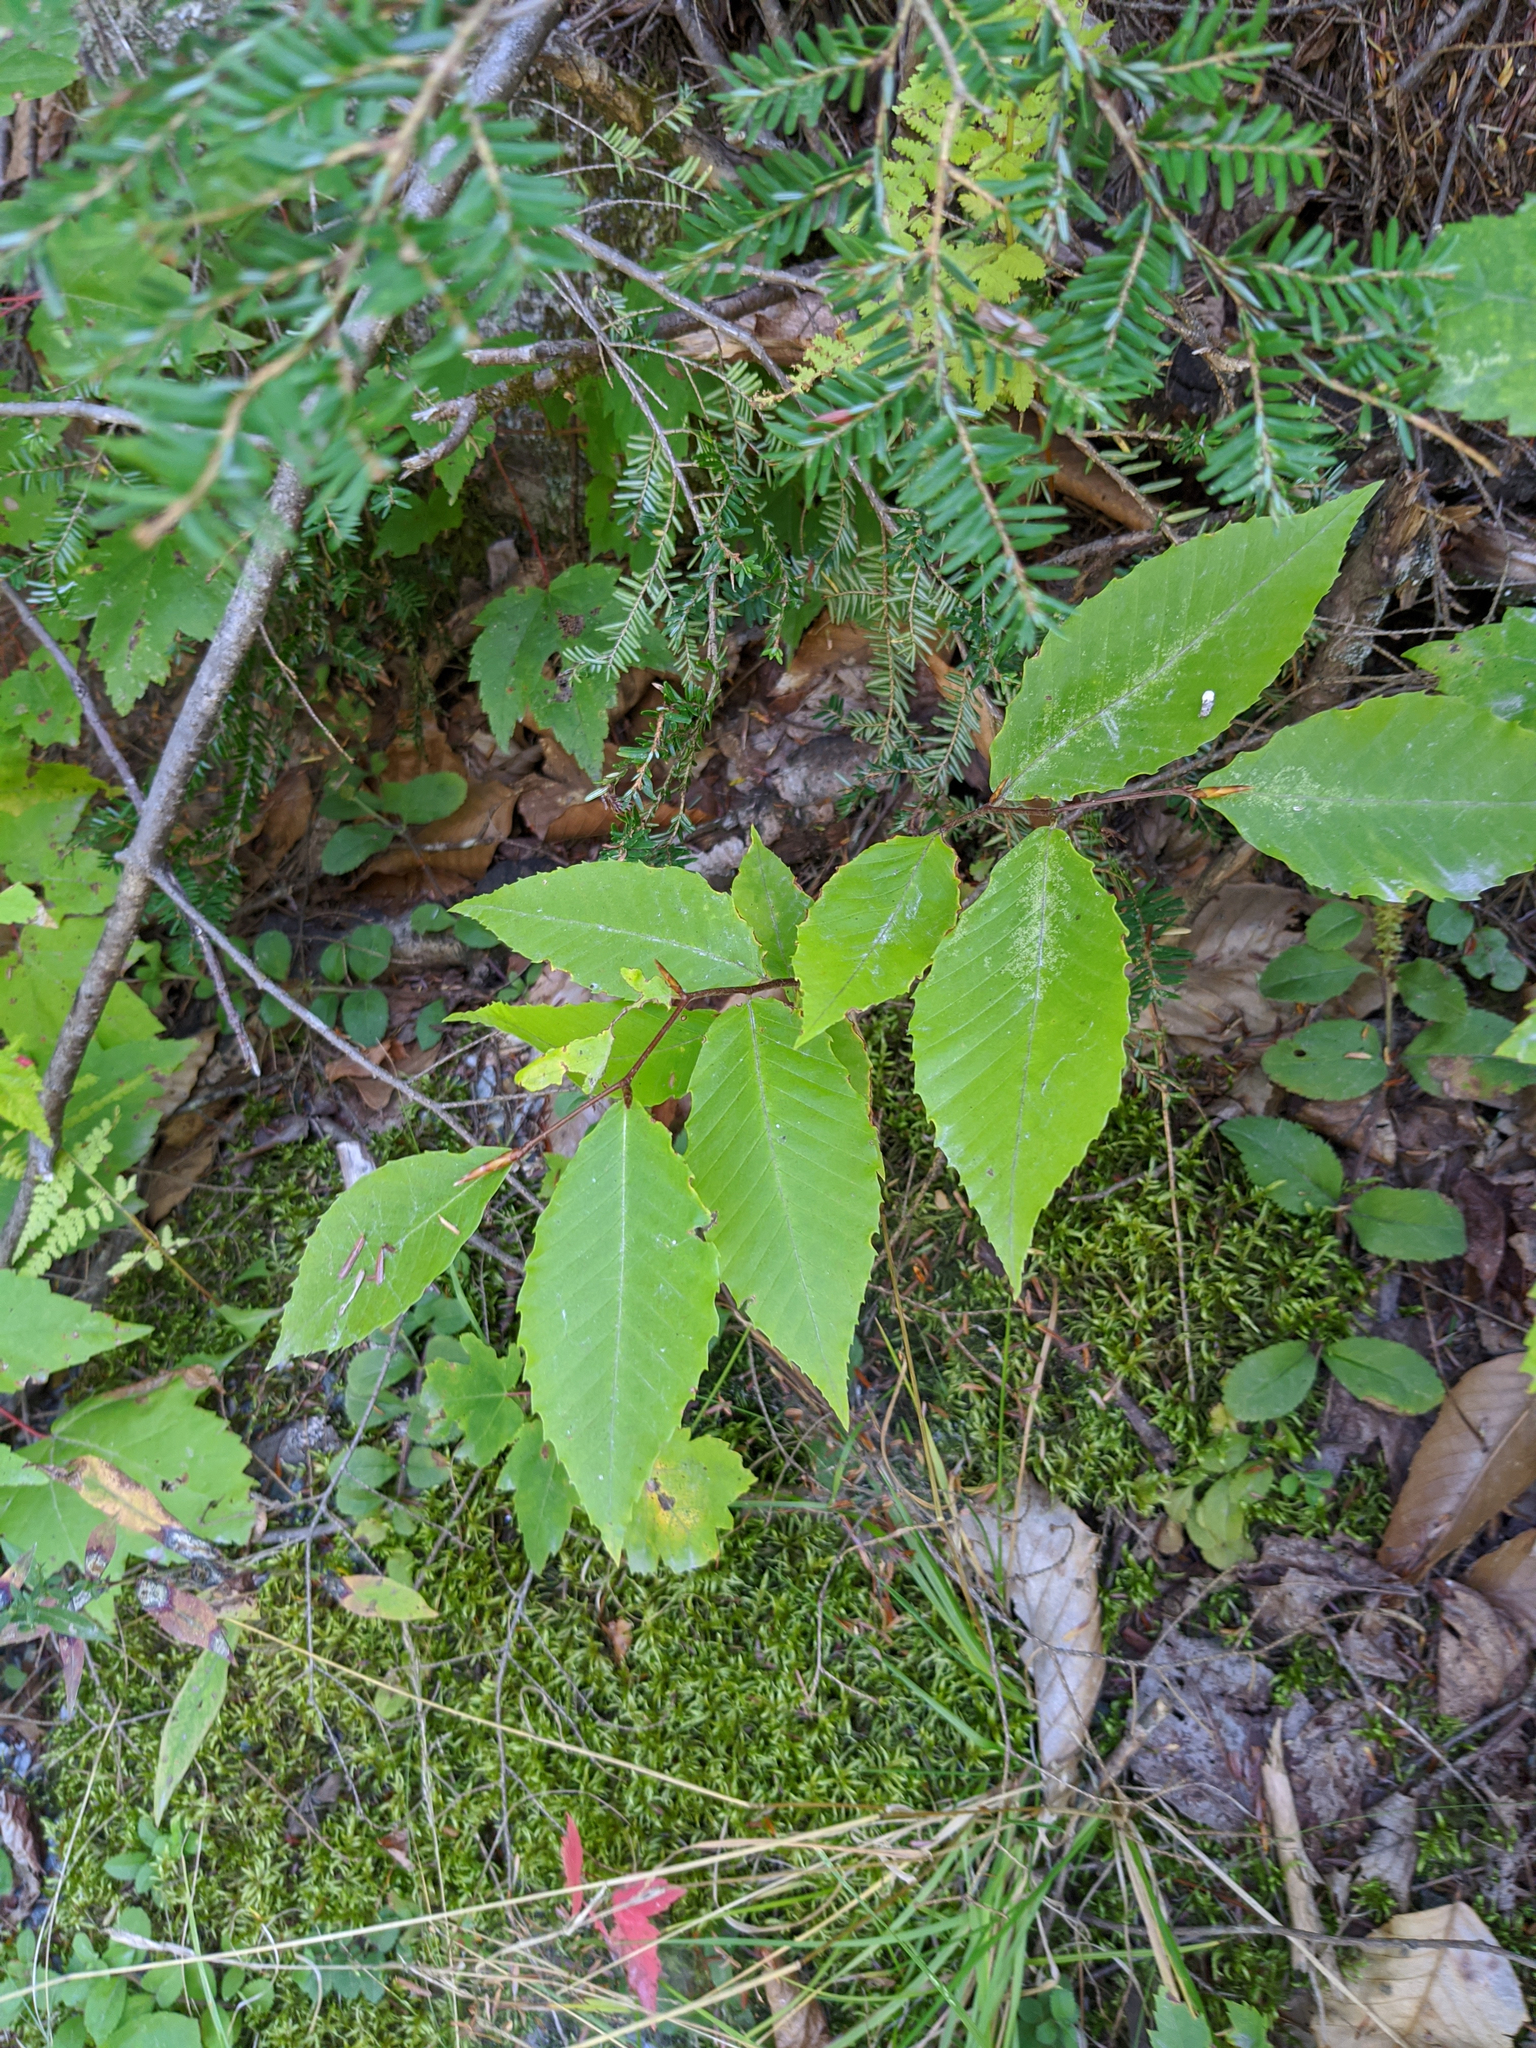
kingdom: Plantae
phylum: Tracheophyta
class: Magnoliopsida
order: Fagales
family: Fagaceae
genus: Fagus
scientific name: Fagus grandifolia
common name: American beech
